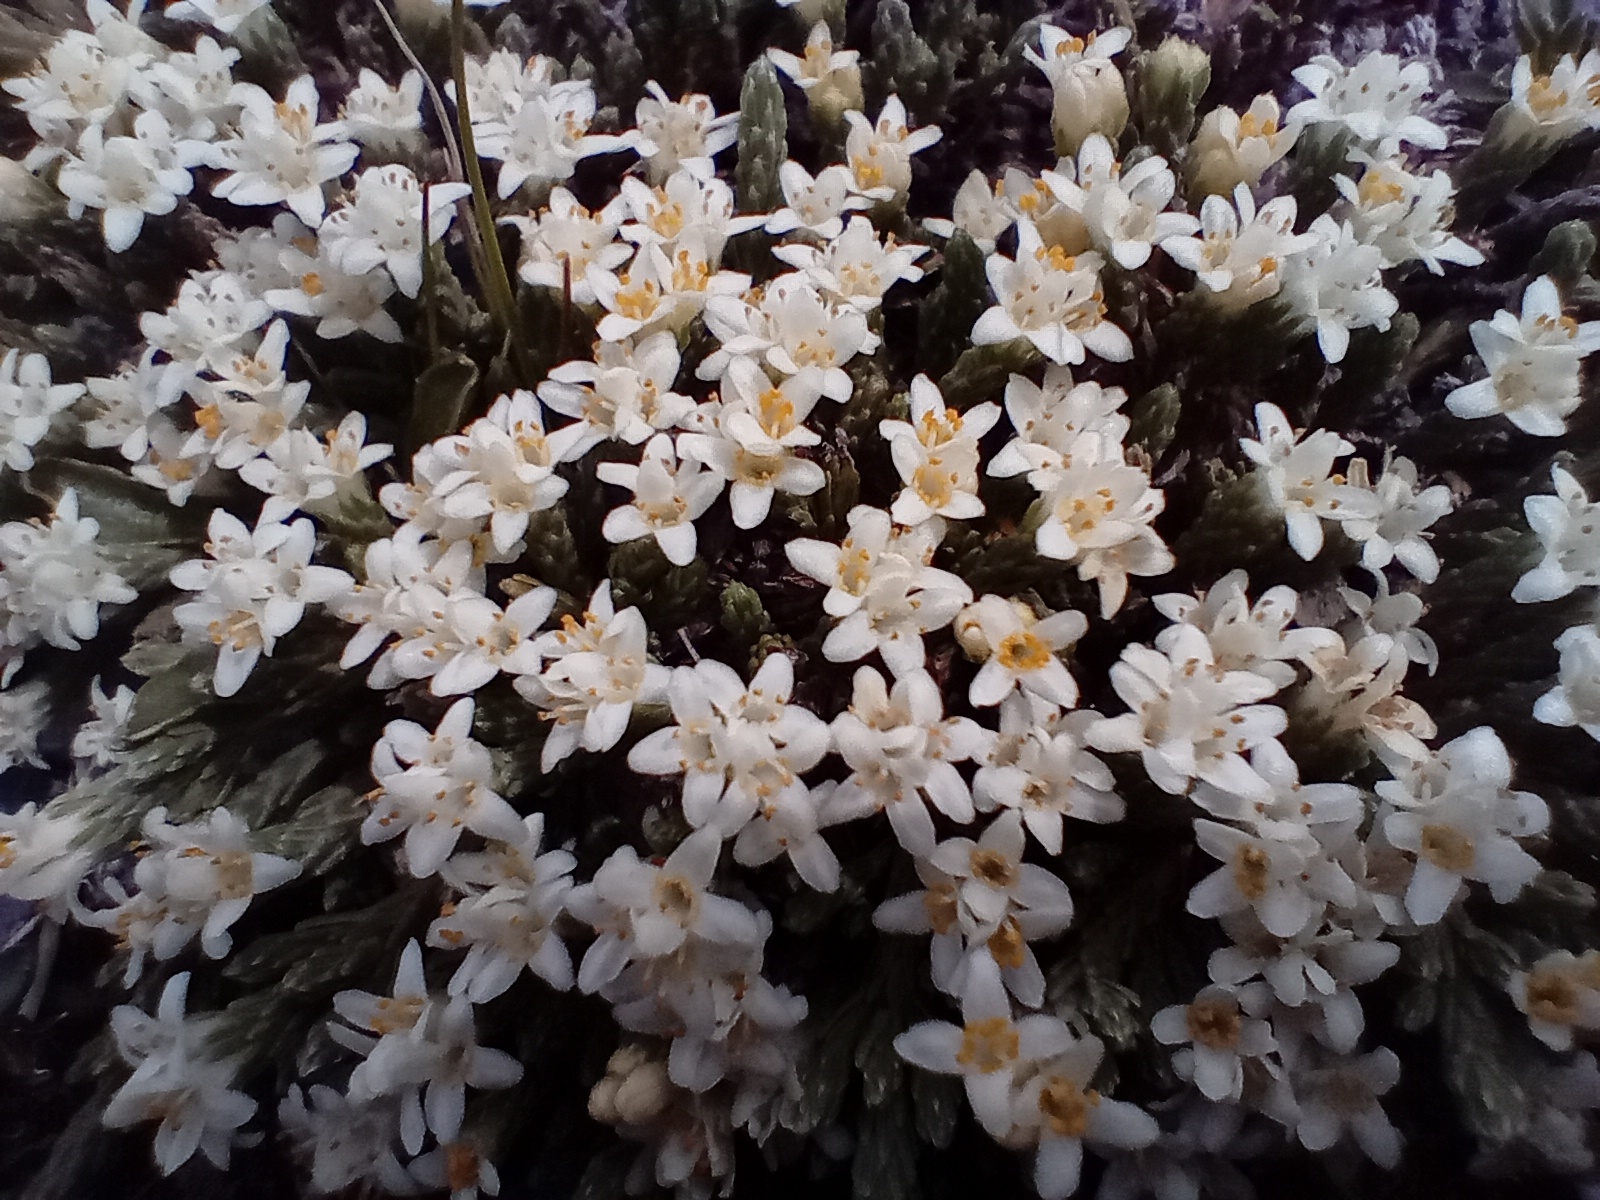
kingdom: Plantae
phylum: Tracheophyta
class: Magnoliopsida
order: Malvales
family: Thymelaeaceae
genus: Kelleria
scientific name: Kelleria dieffenbachii
